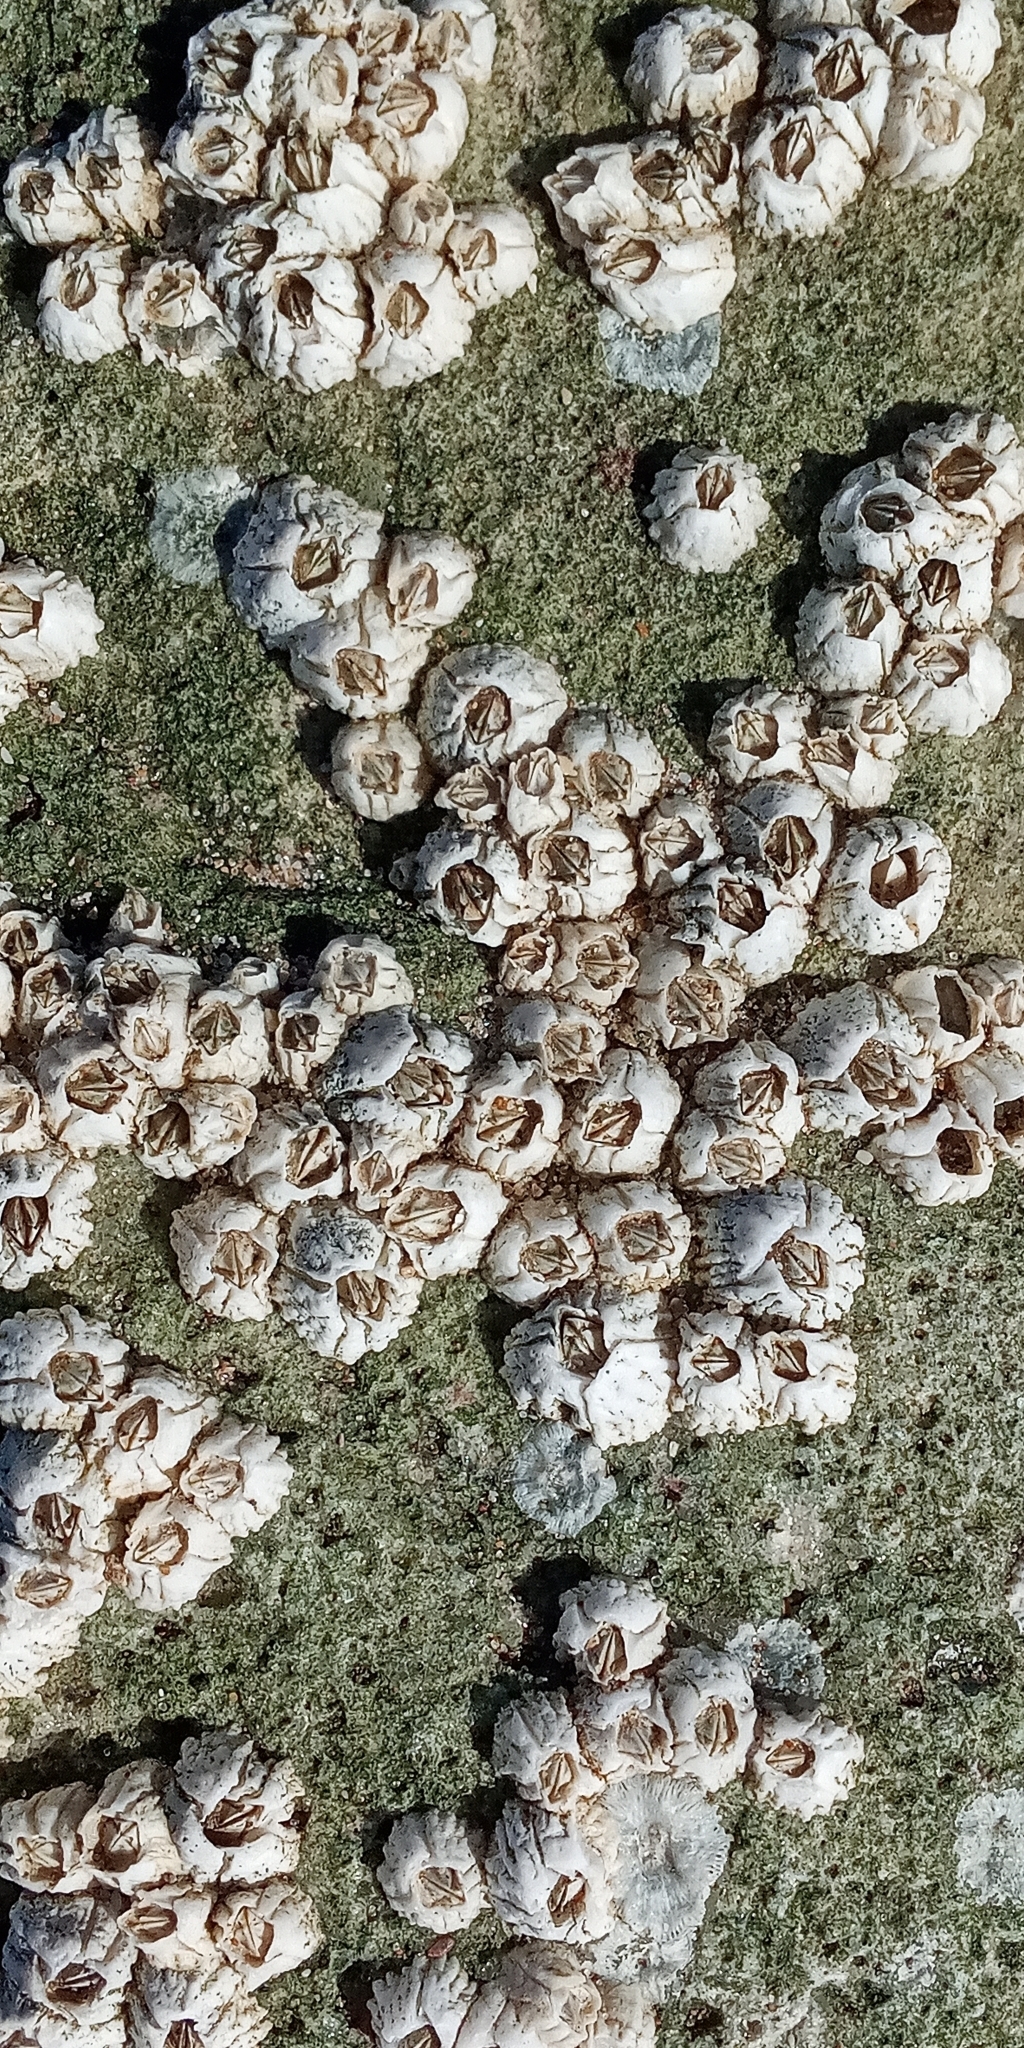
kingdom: Animalia
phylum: Arthropoda
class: Maxillopoda
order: Sessilia
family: Balanidae
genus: Balanus
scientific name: Balanus glandula
